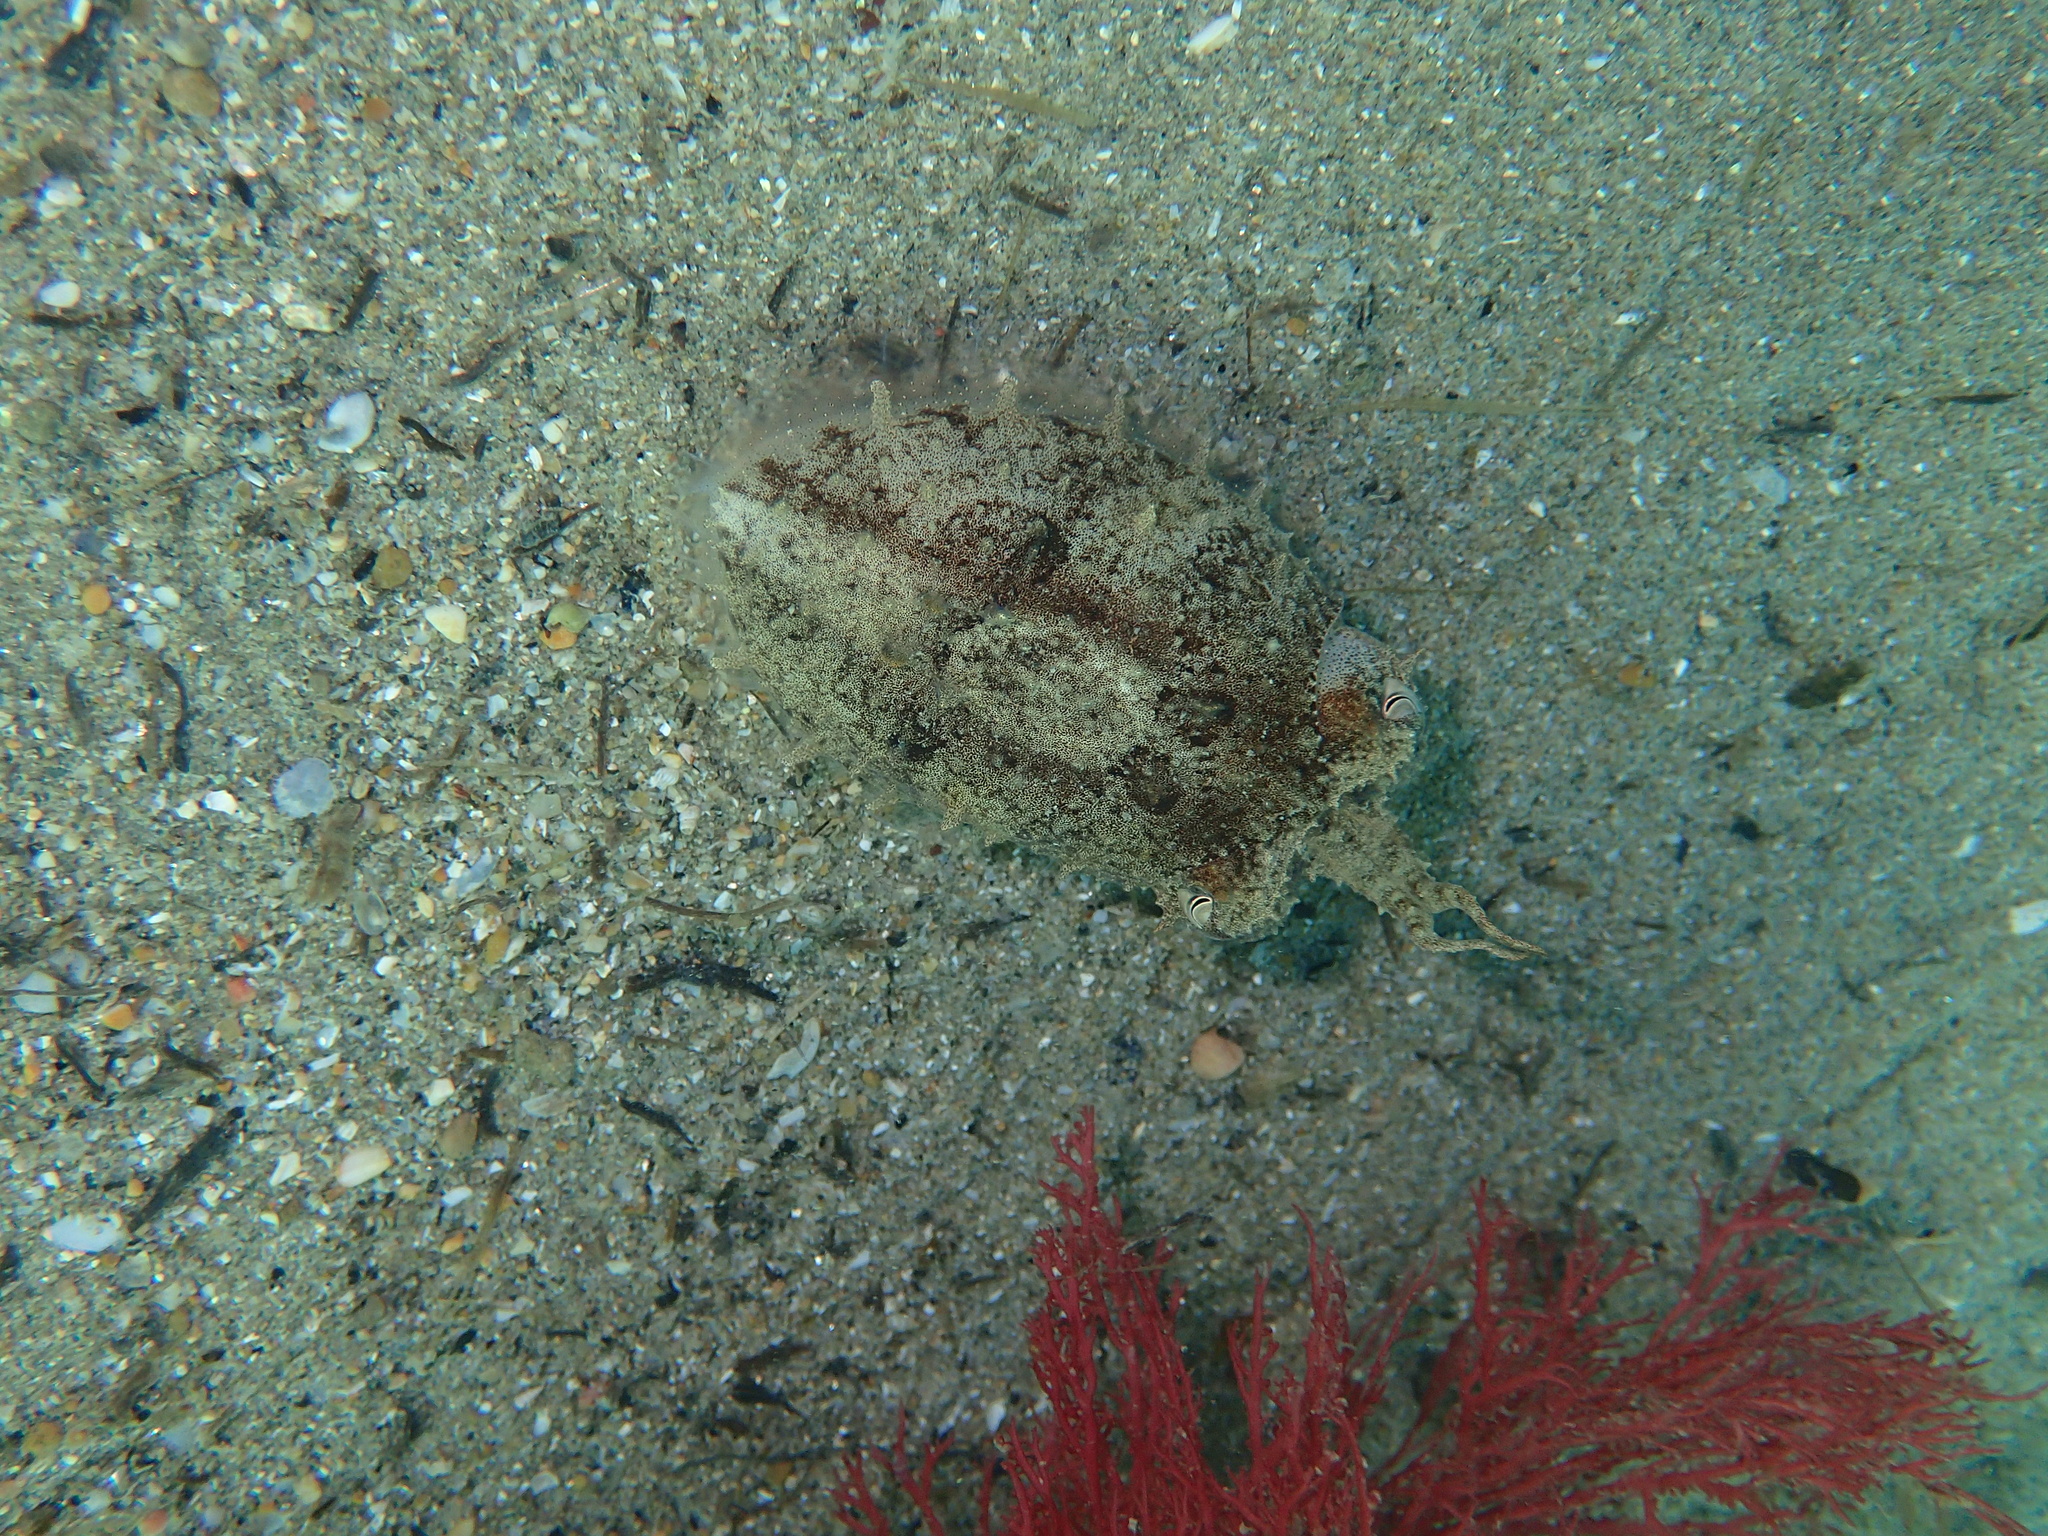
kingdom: Animalia
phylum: Mollusca
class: Cephalopoda
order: Sepiida
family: Sepiidae
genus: Sepia
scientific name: Sepia officinalis
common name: Common cuttlefish
